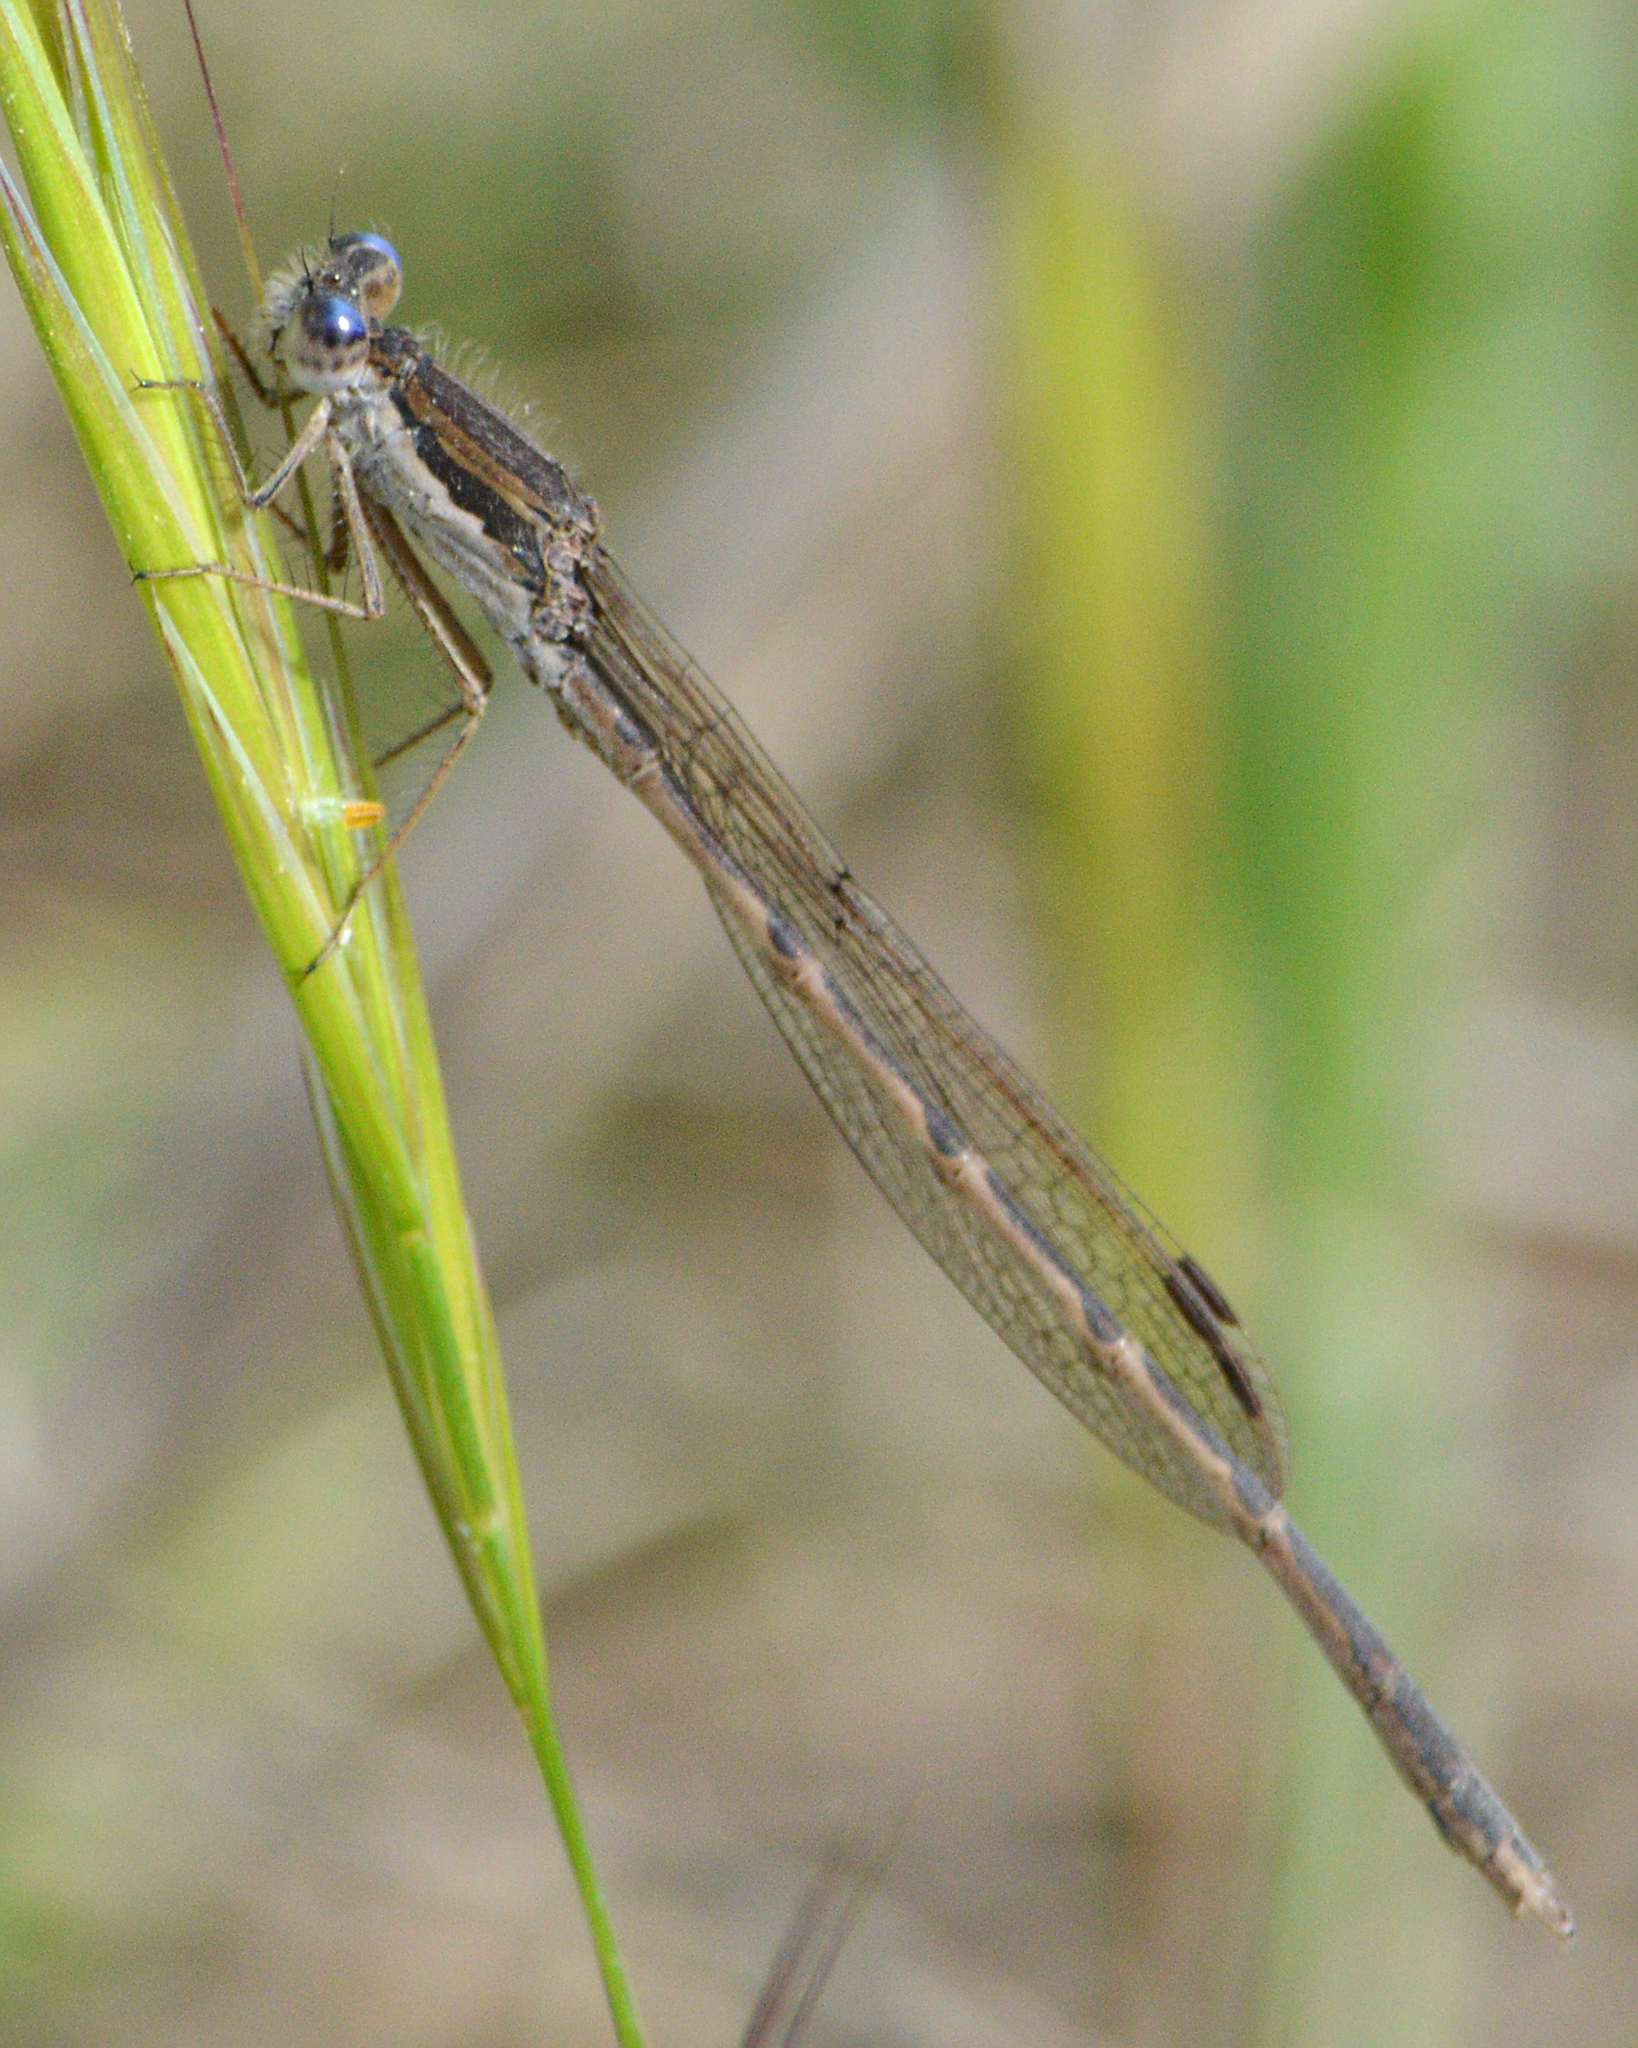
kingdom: Animalia
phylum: Arthropoda
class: Insecta
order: Odonata
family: Lestidae
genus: Sympecma
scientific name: Sympecma fusca
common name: Common winter damsel
